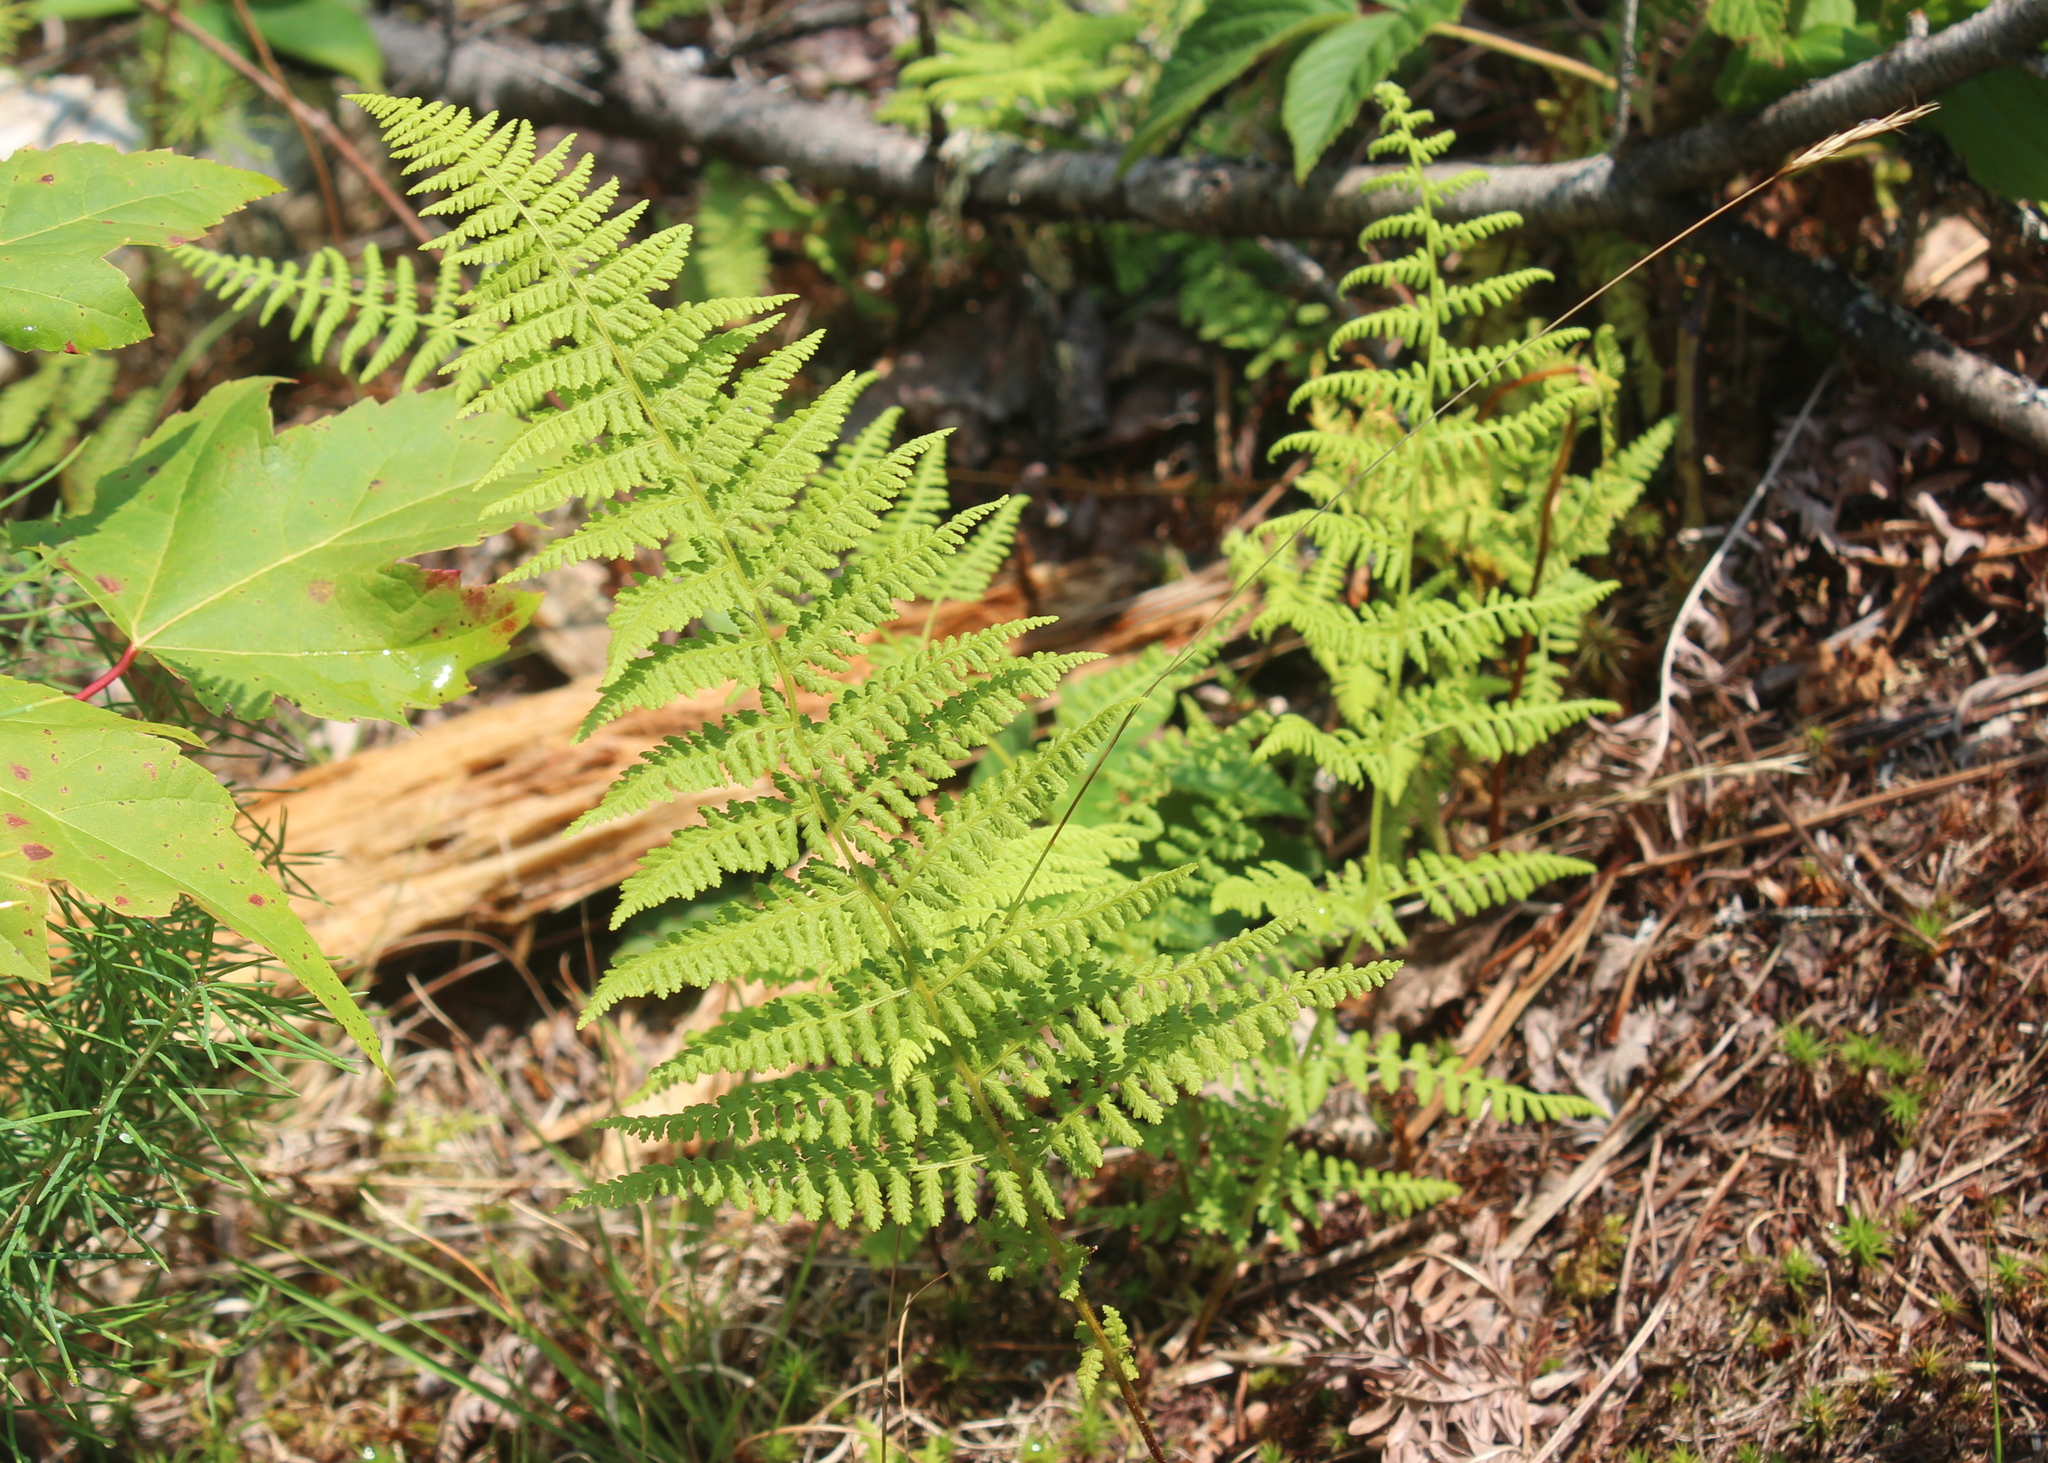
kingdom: Plantae
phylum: Tracheophyta
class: Polypodiopsida
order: Polypodiales
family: Dennstaedtiaceae
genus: Sitobolium
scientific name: Sitobolium punctilobum
